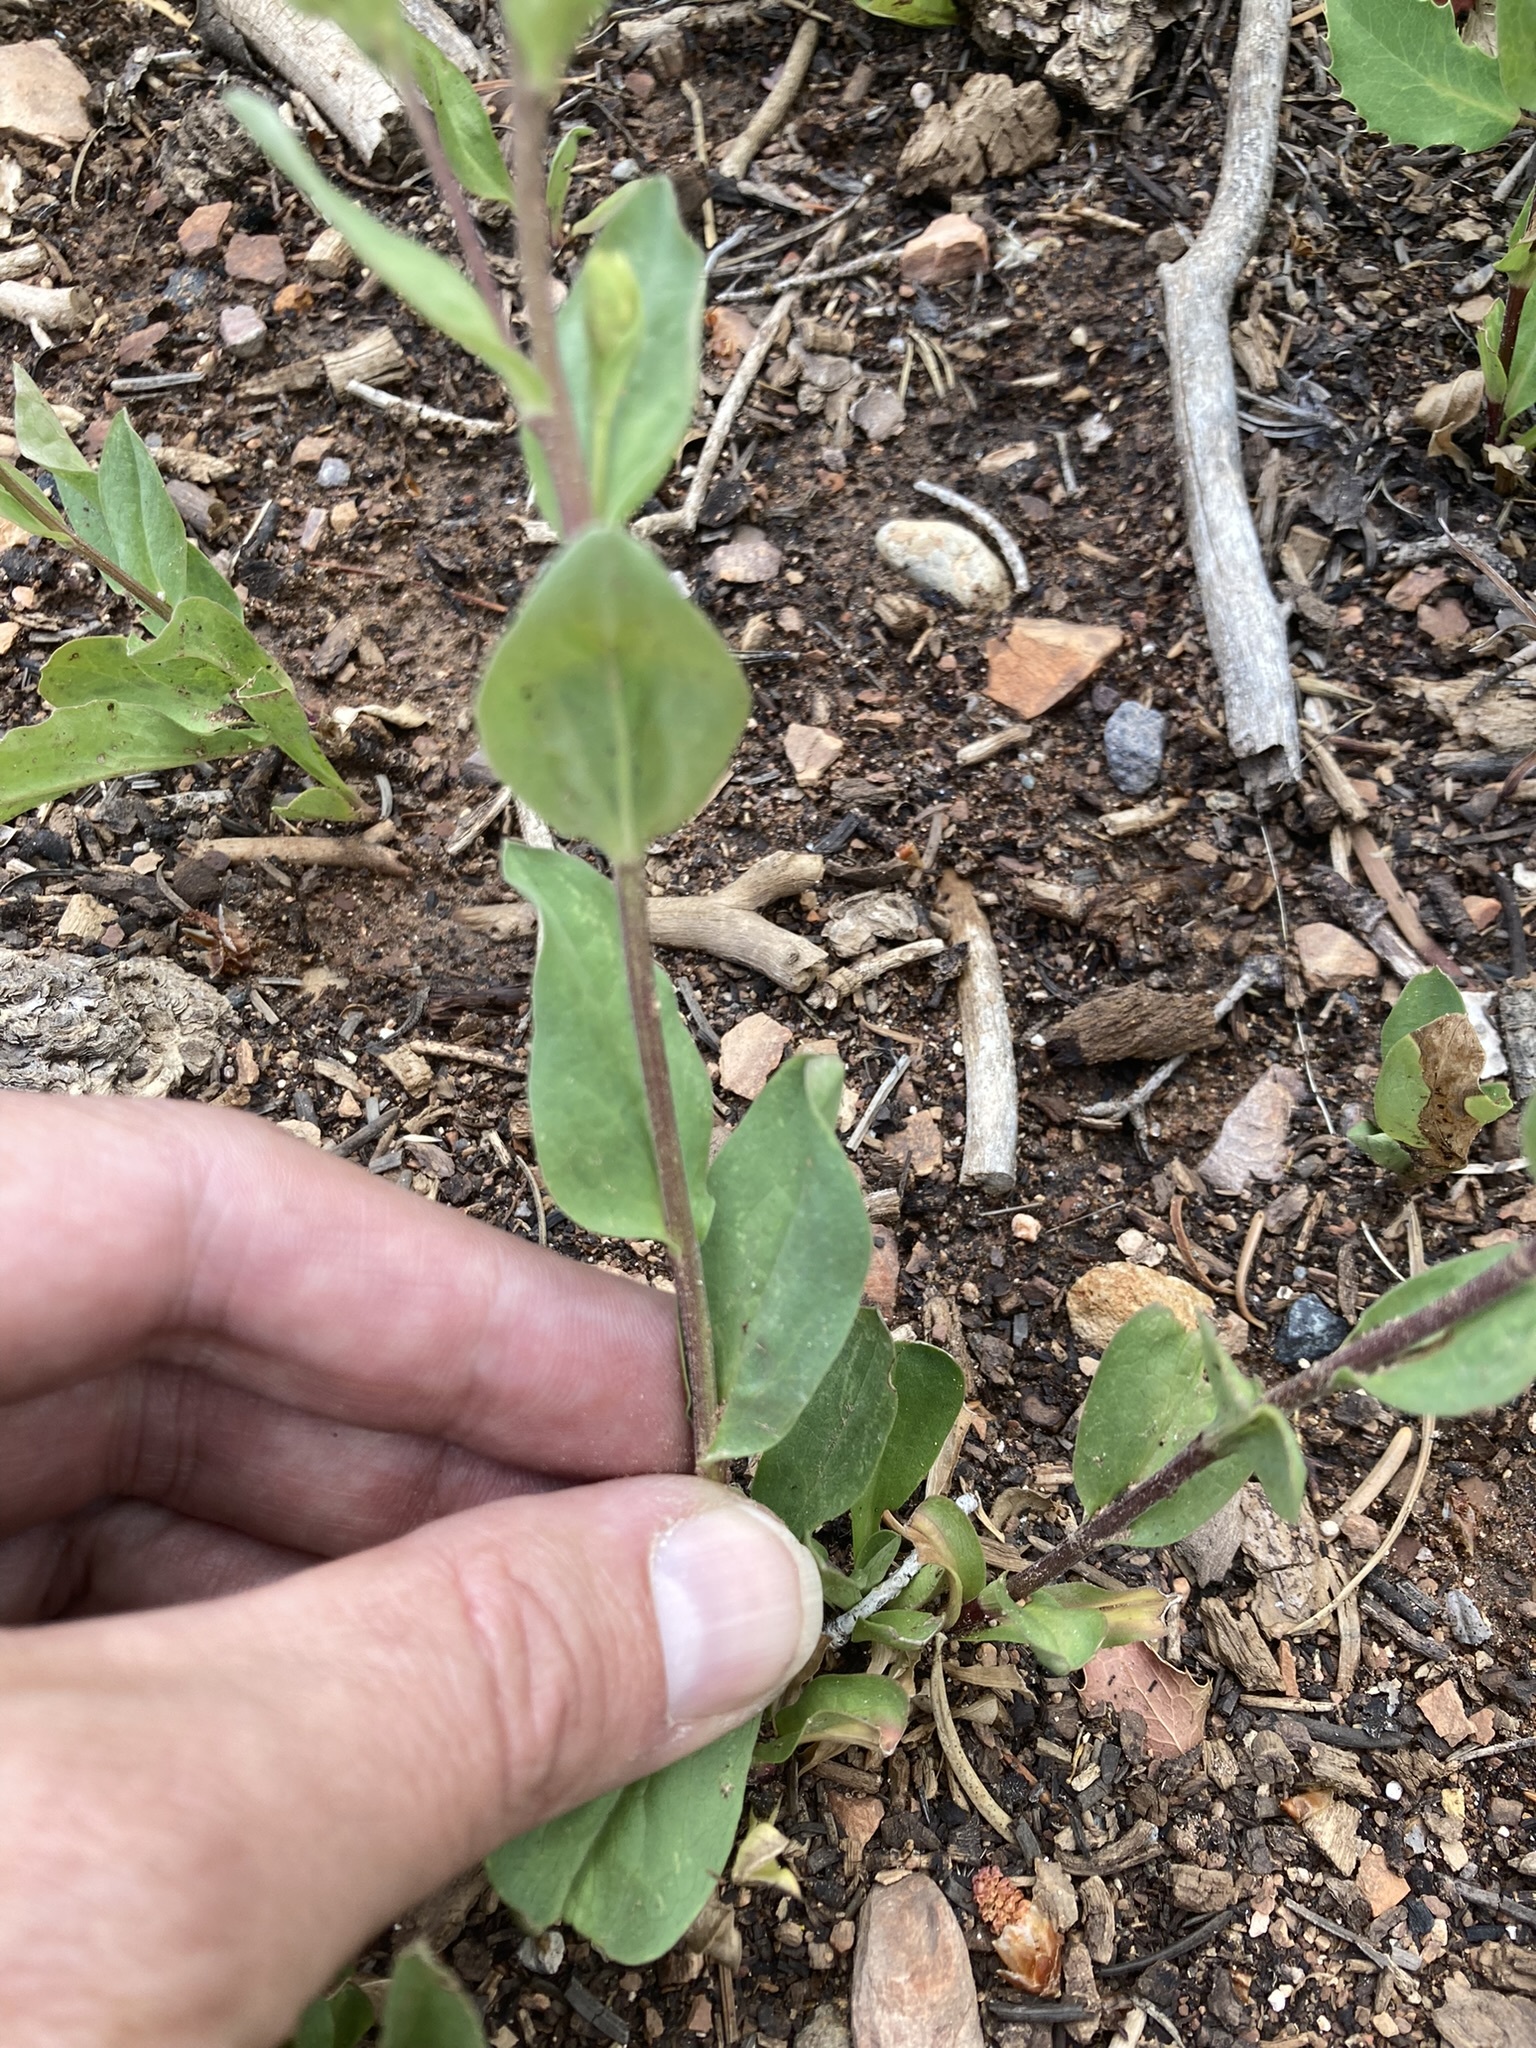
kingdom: Plantae
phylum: Tracheophyta
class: Magnoliopsida
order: Asterales
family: Asteraceae
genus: Oreochrysum
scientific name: Oreochrysum parryi
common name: Parry's goldenweed
